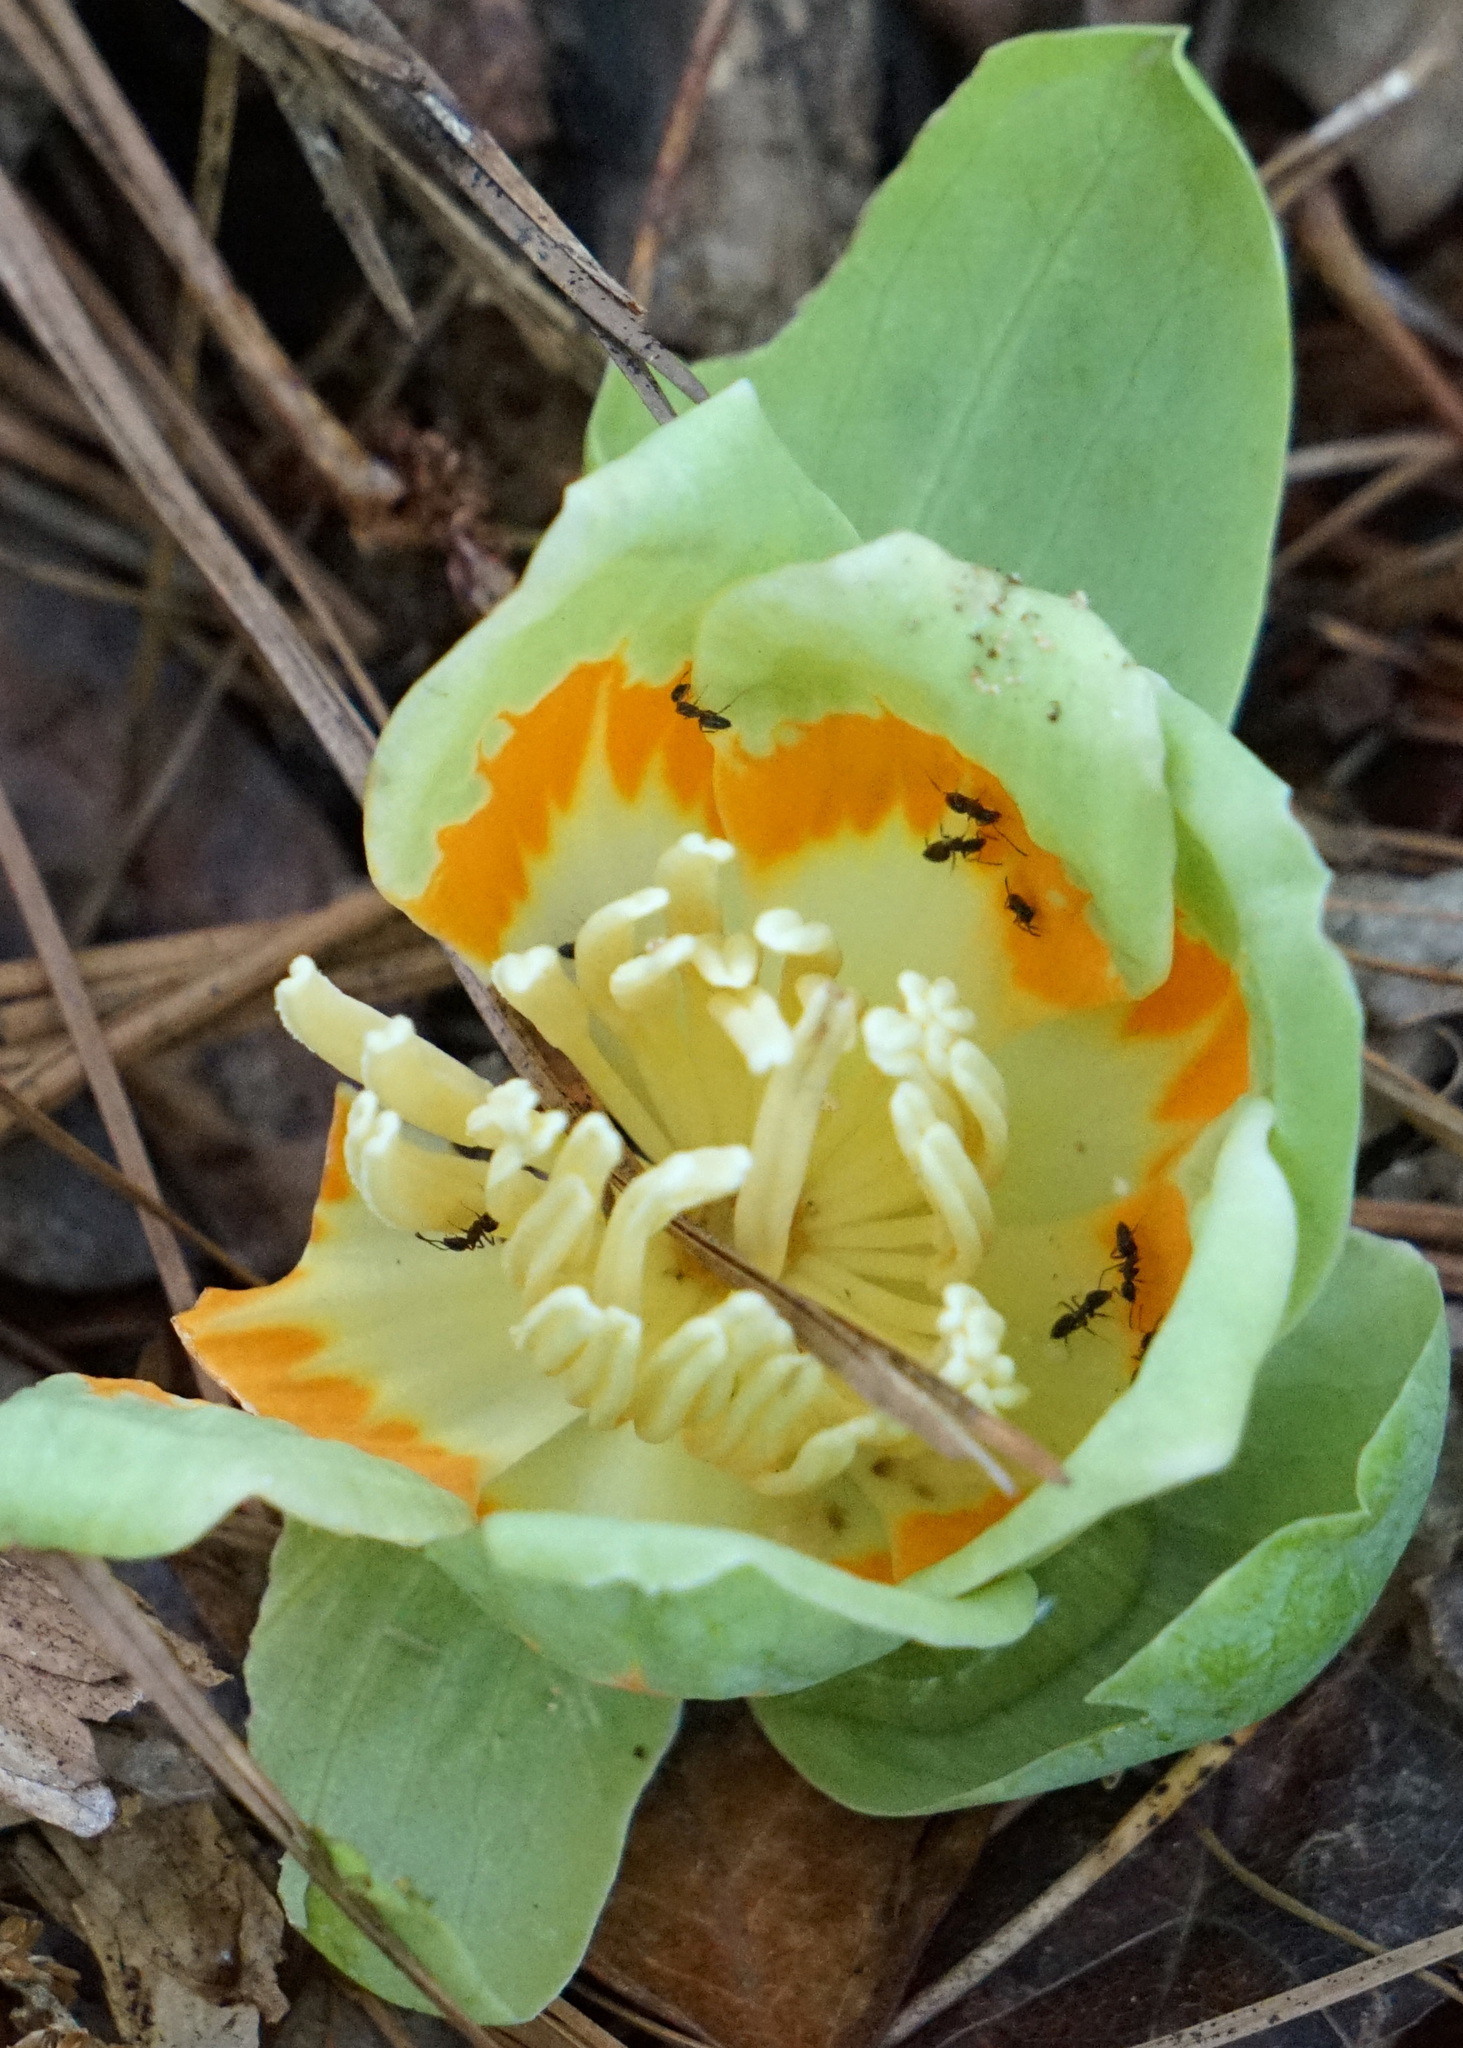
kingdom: Animalia
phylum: Arthropoda
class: Insecta
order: Hymenoptera
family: Formicidae
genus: Tapinoma
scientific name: Tapinoma sessile
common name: Odorous house ant
